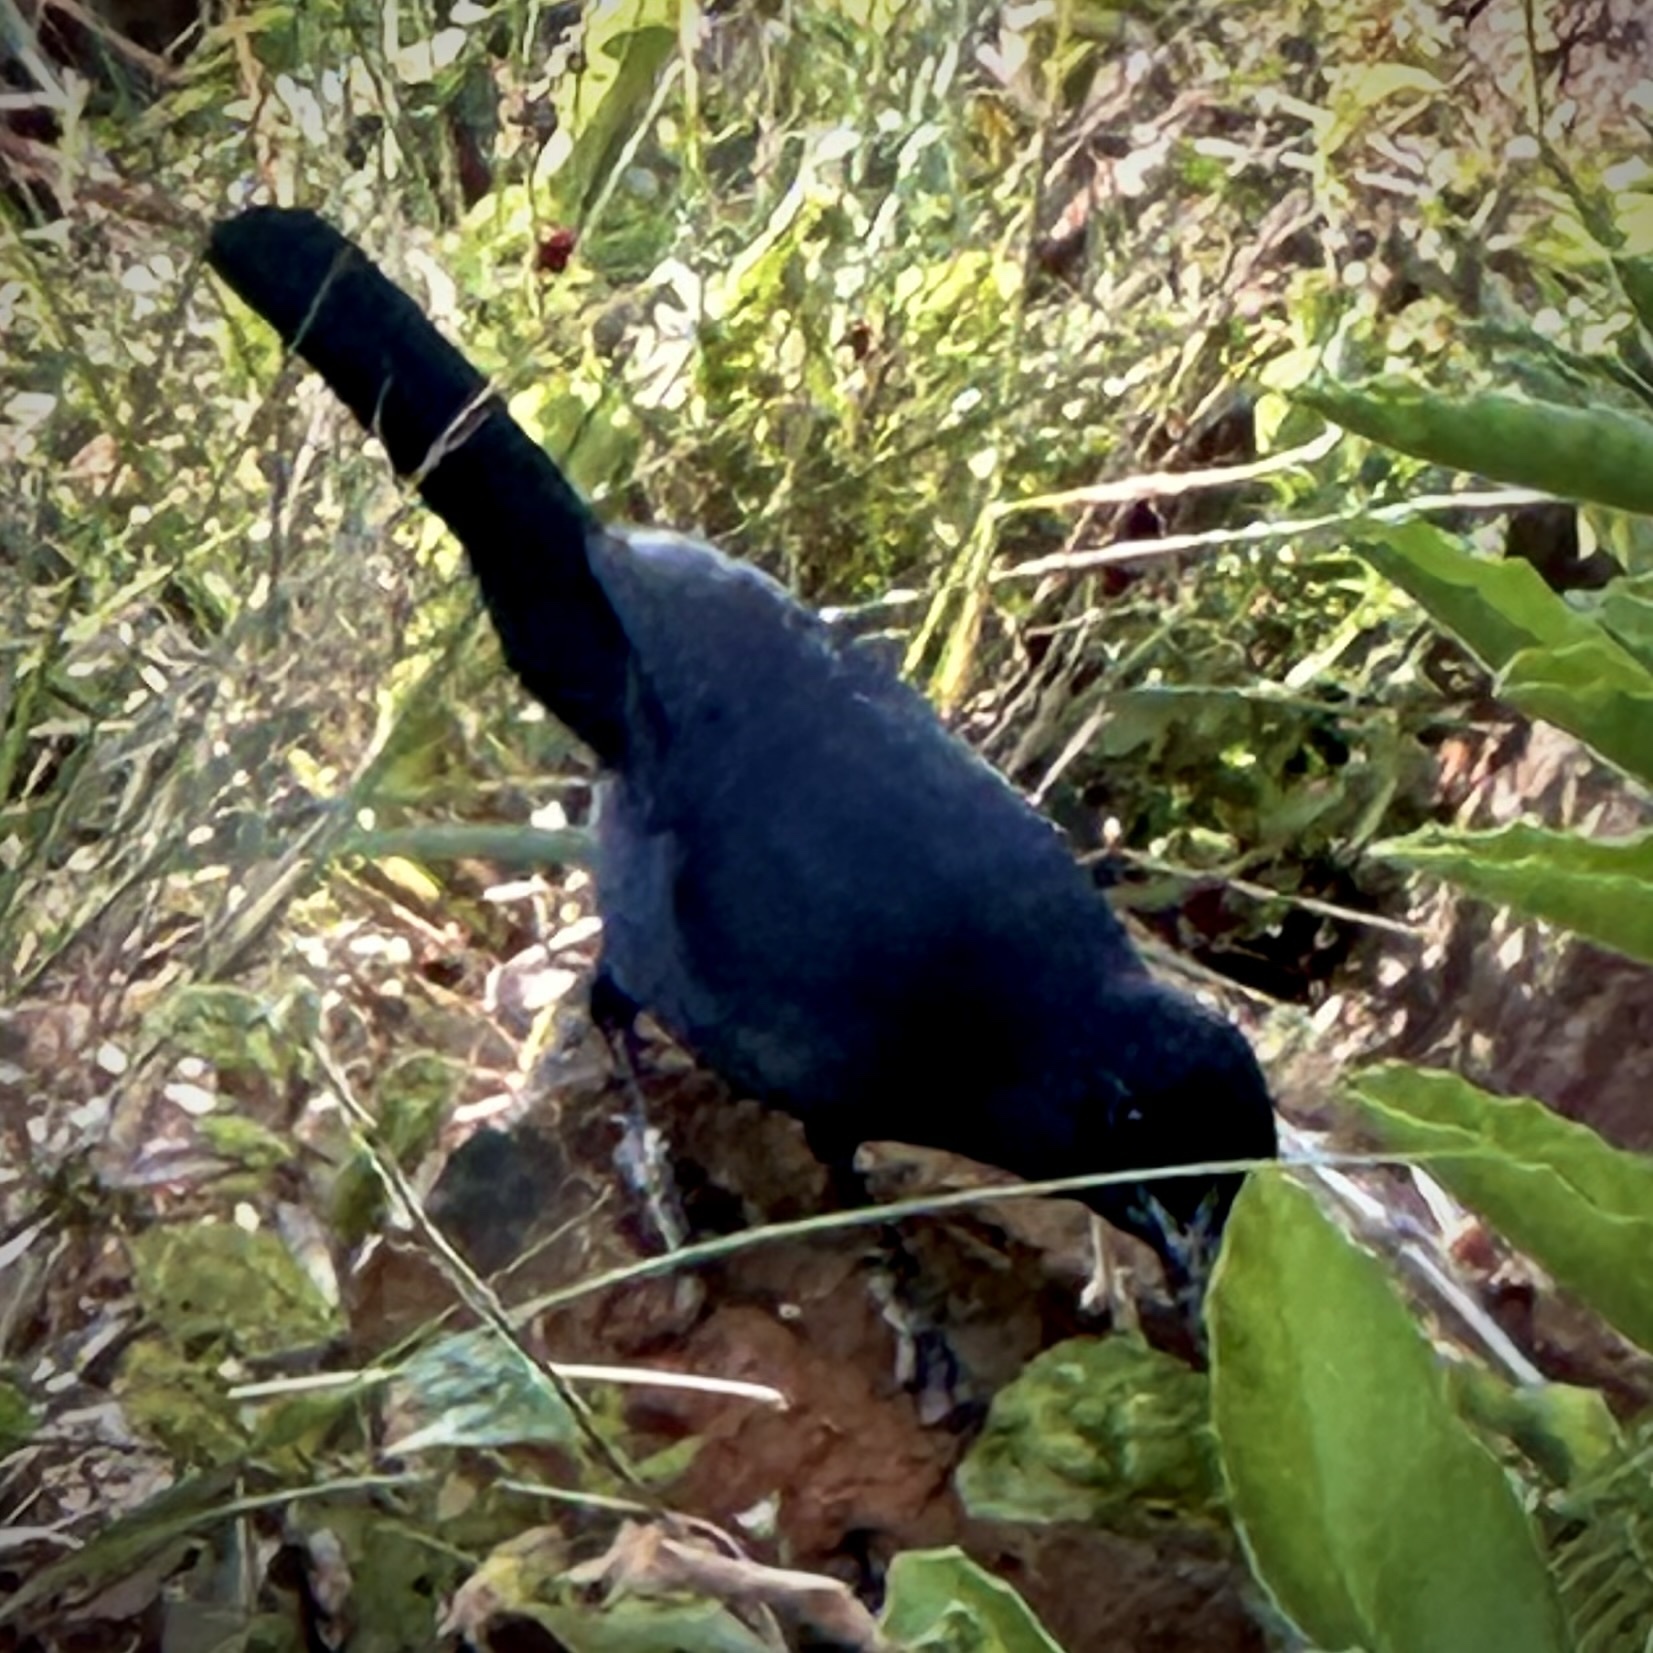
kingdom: Animalia
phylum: Chordata
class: Aves
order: Passeriformes
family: Malaconotidae
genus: Laniarius
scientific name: Laniarius funebris
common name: Slate-colored boubou
